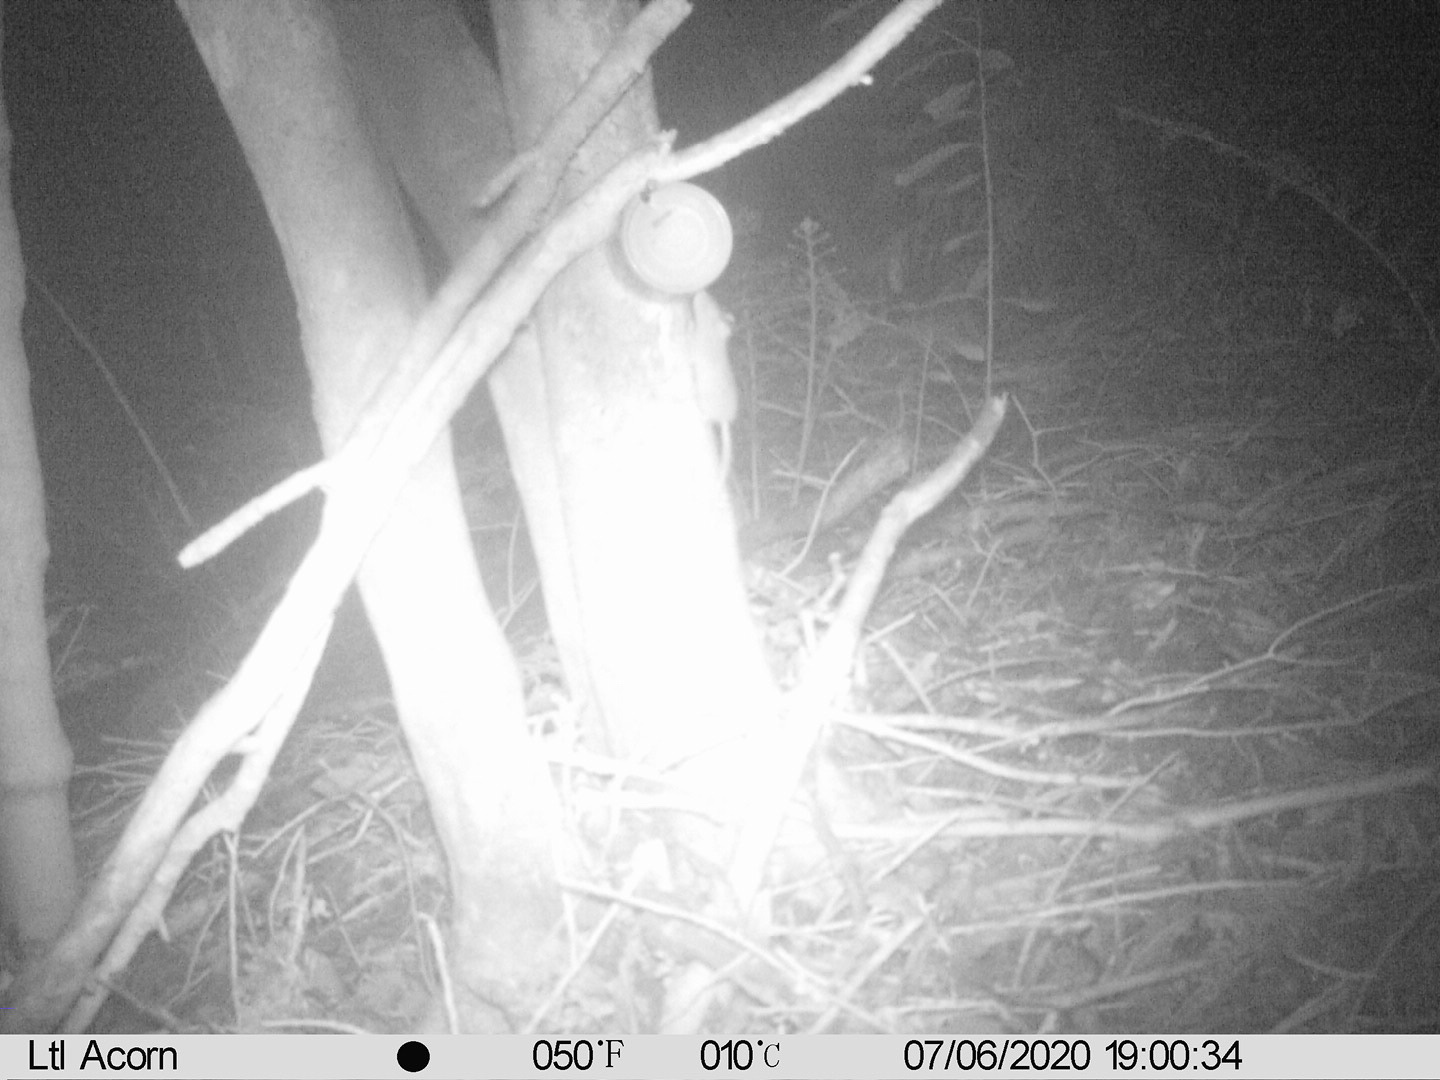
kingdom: Animalia
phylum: Chordata
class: Mammalia
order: Rodentia
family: Muridae
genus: Rattus
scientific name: Rattus rattus
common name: Black rat
